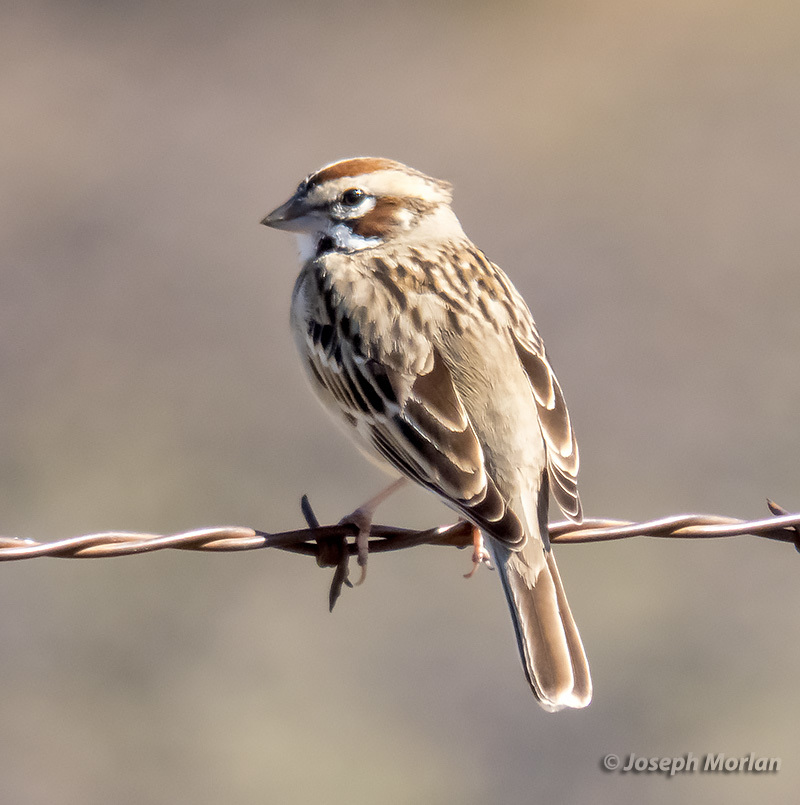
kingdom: Animalia
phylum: Chordata
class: Aves
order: Passeriformes
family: Passerellidae
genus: Chondestes
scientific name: Chondestes grammacus
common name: Lark sparrow
